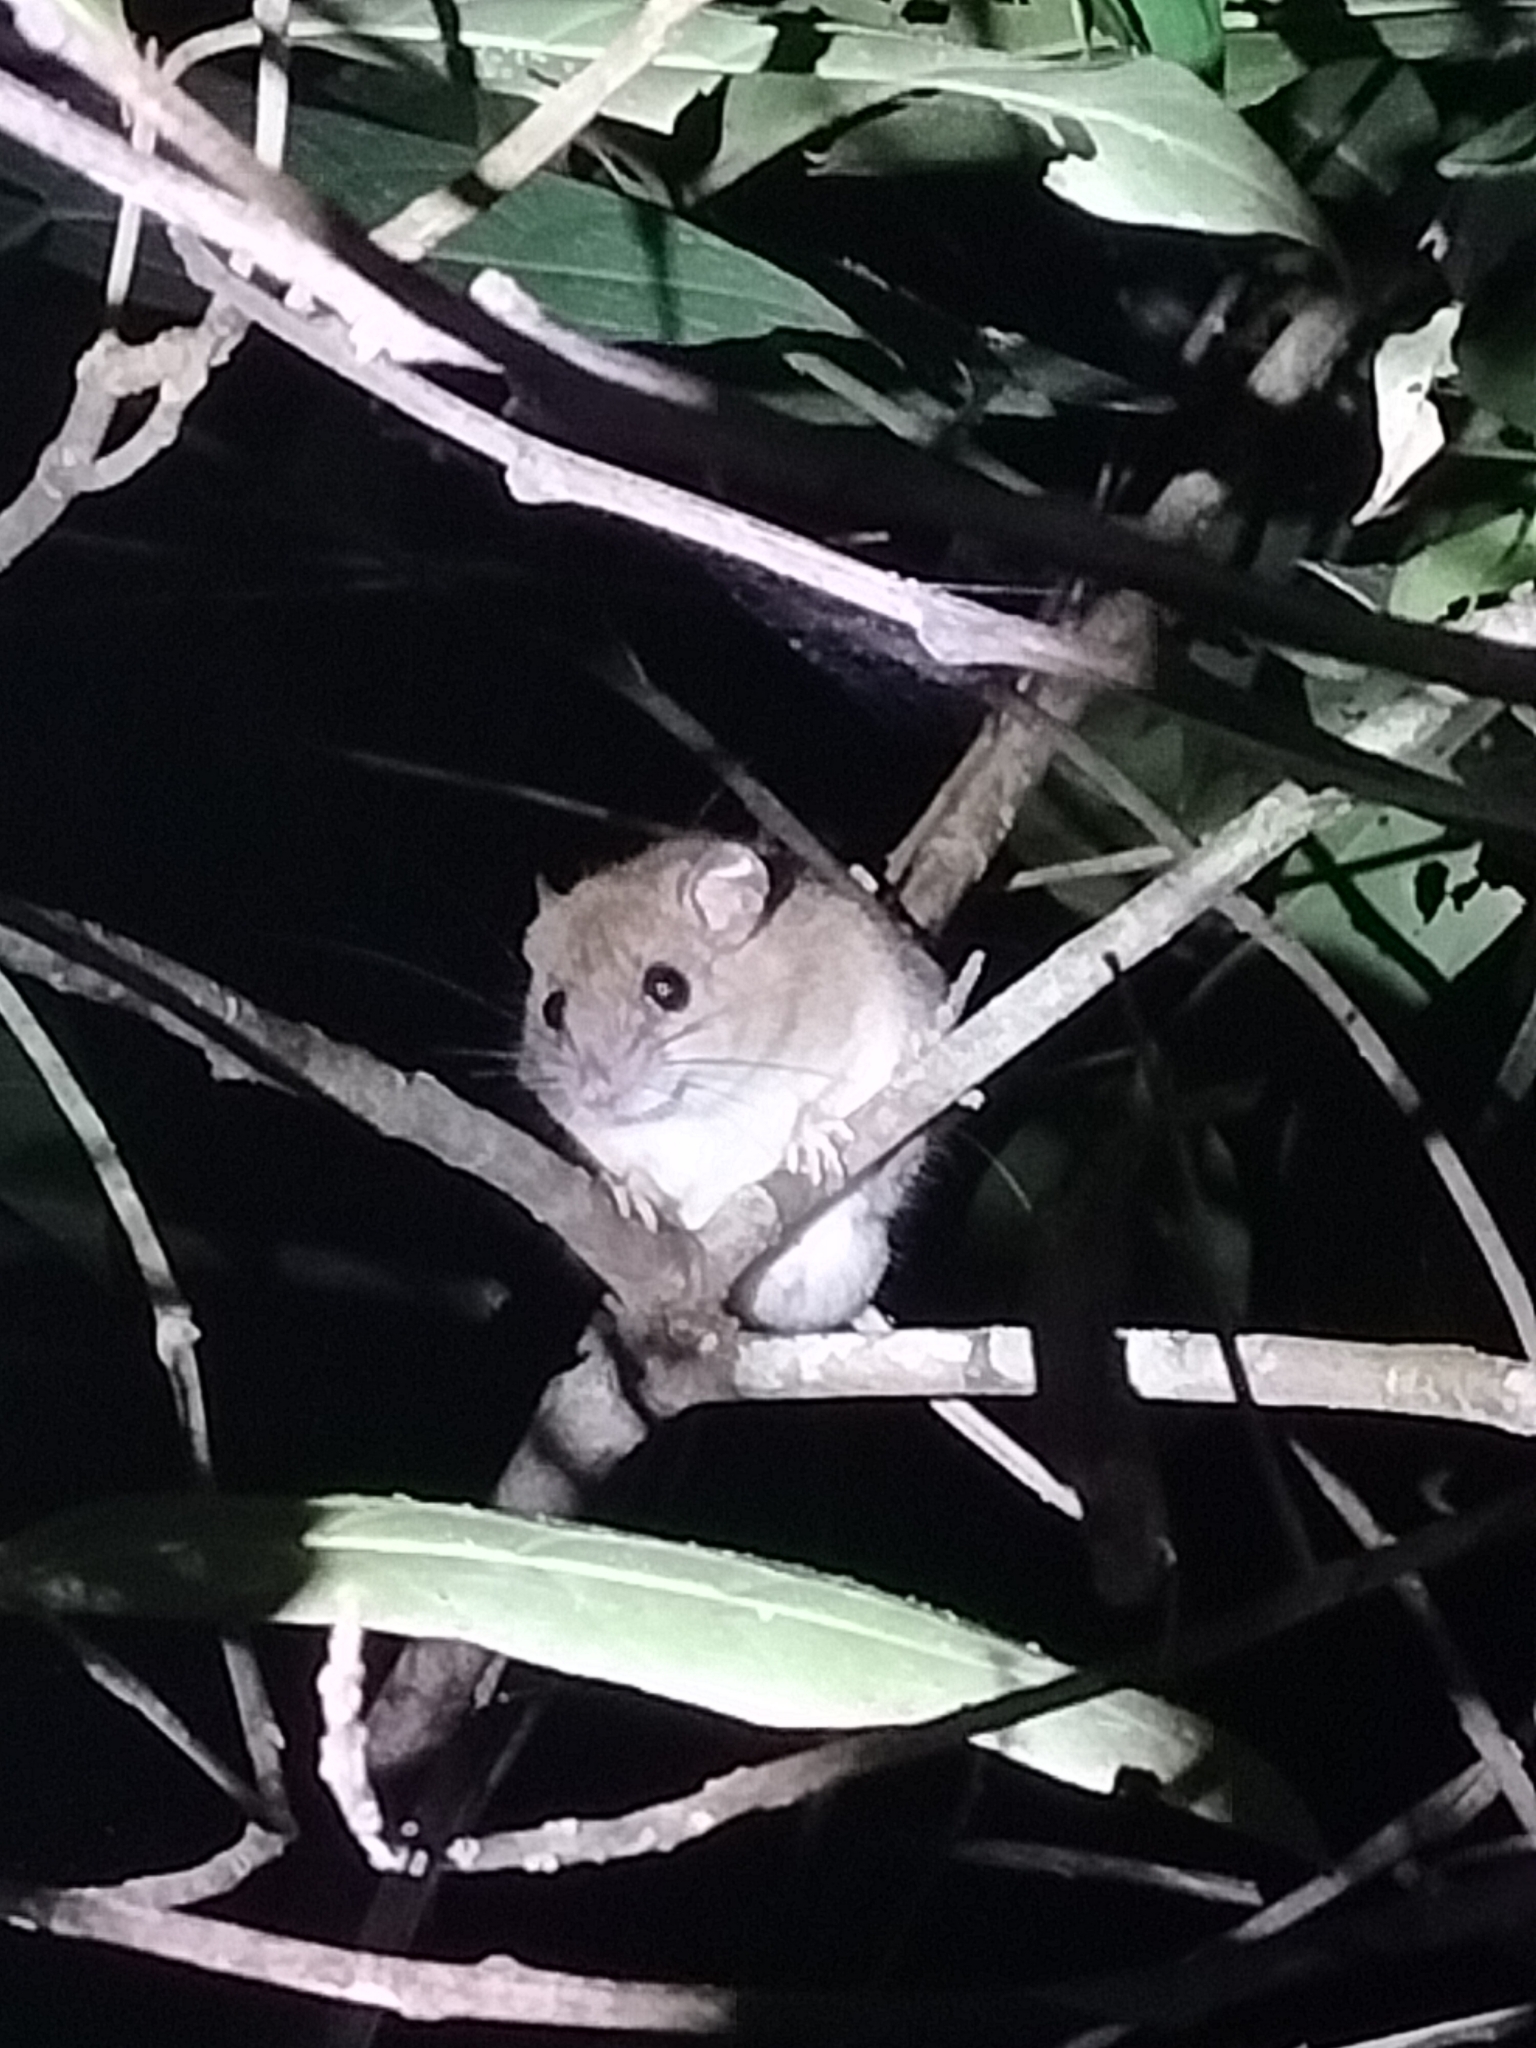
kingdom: Animalia
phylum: Chordata
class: Mammalia
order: Rodentia
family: Muridae
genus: Melomys
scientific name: Melomys cervinipes
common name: Fawn-footed melomys
